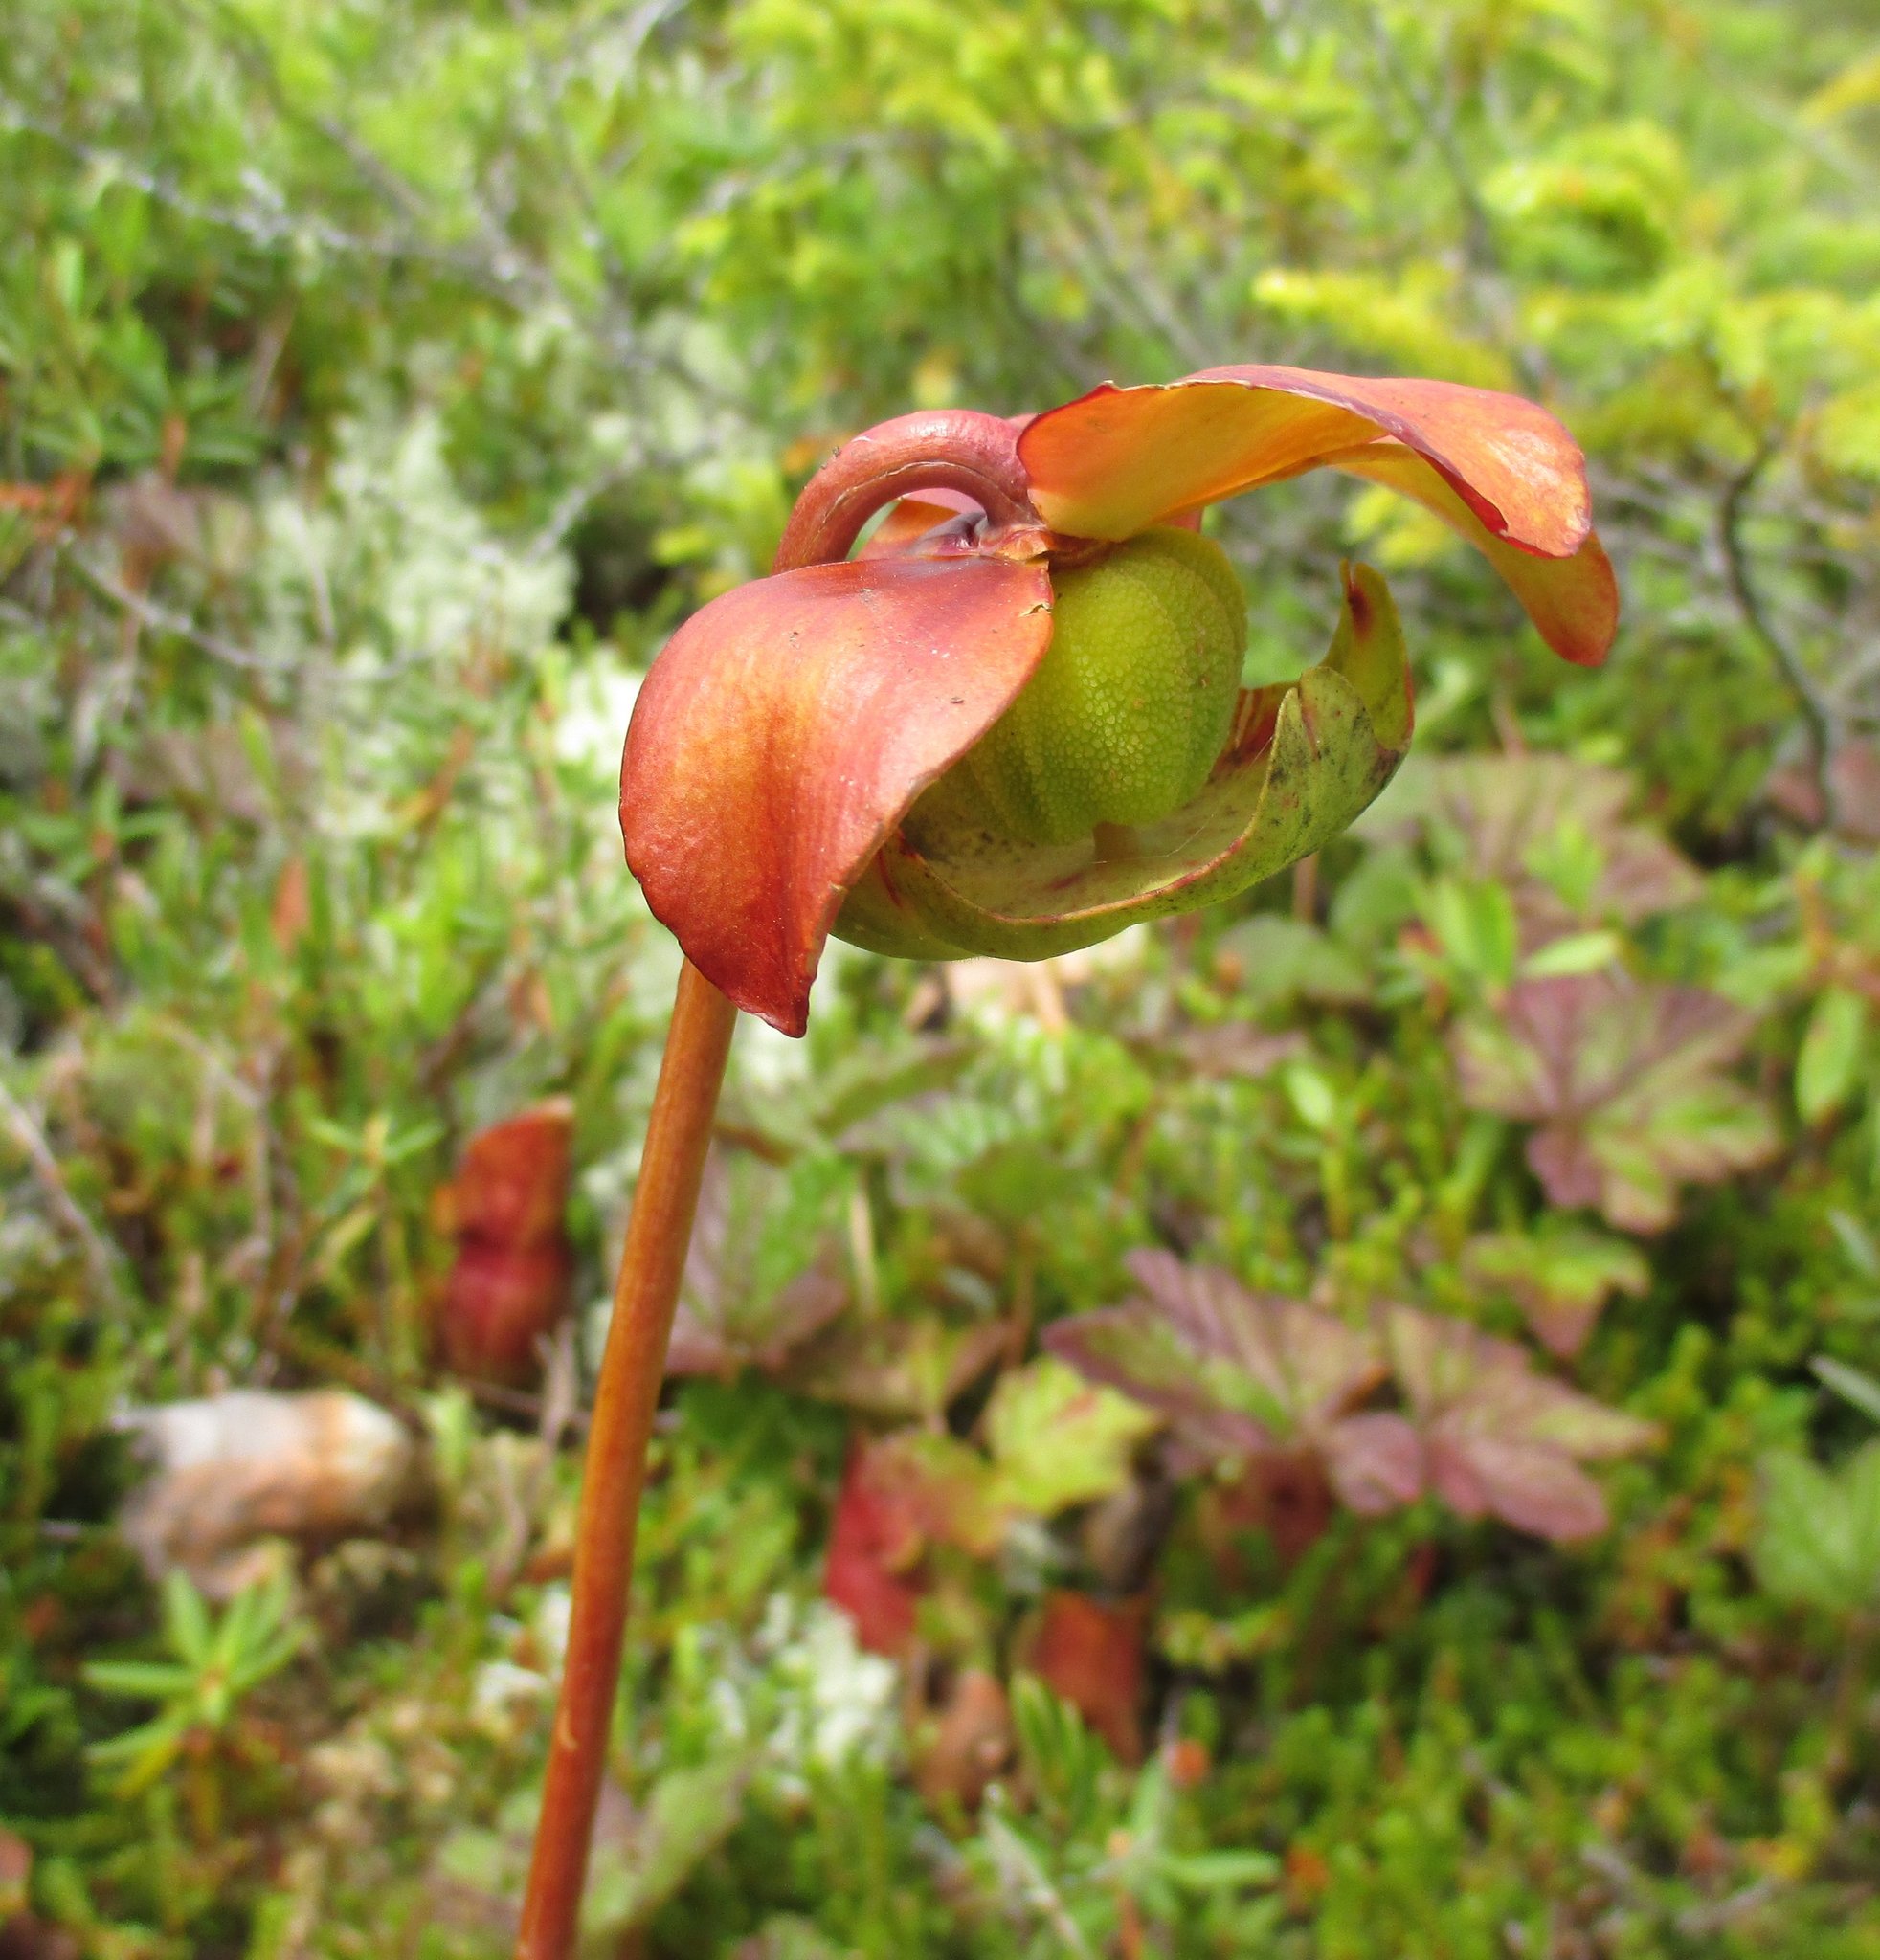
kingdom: Plantae
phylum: Tracheophyta
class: Magnoliopsida
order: Ericales
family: Sarraceniaceae
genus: Sarracenia
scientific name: Sarracenia purpurea
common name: Pitcherplant
